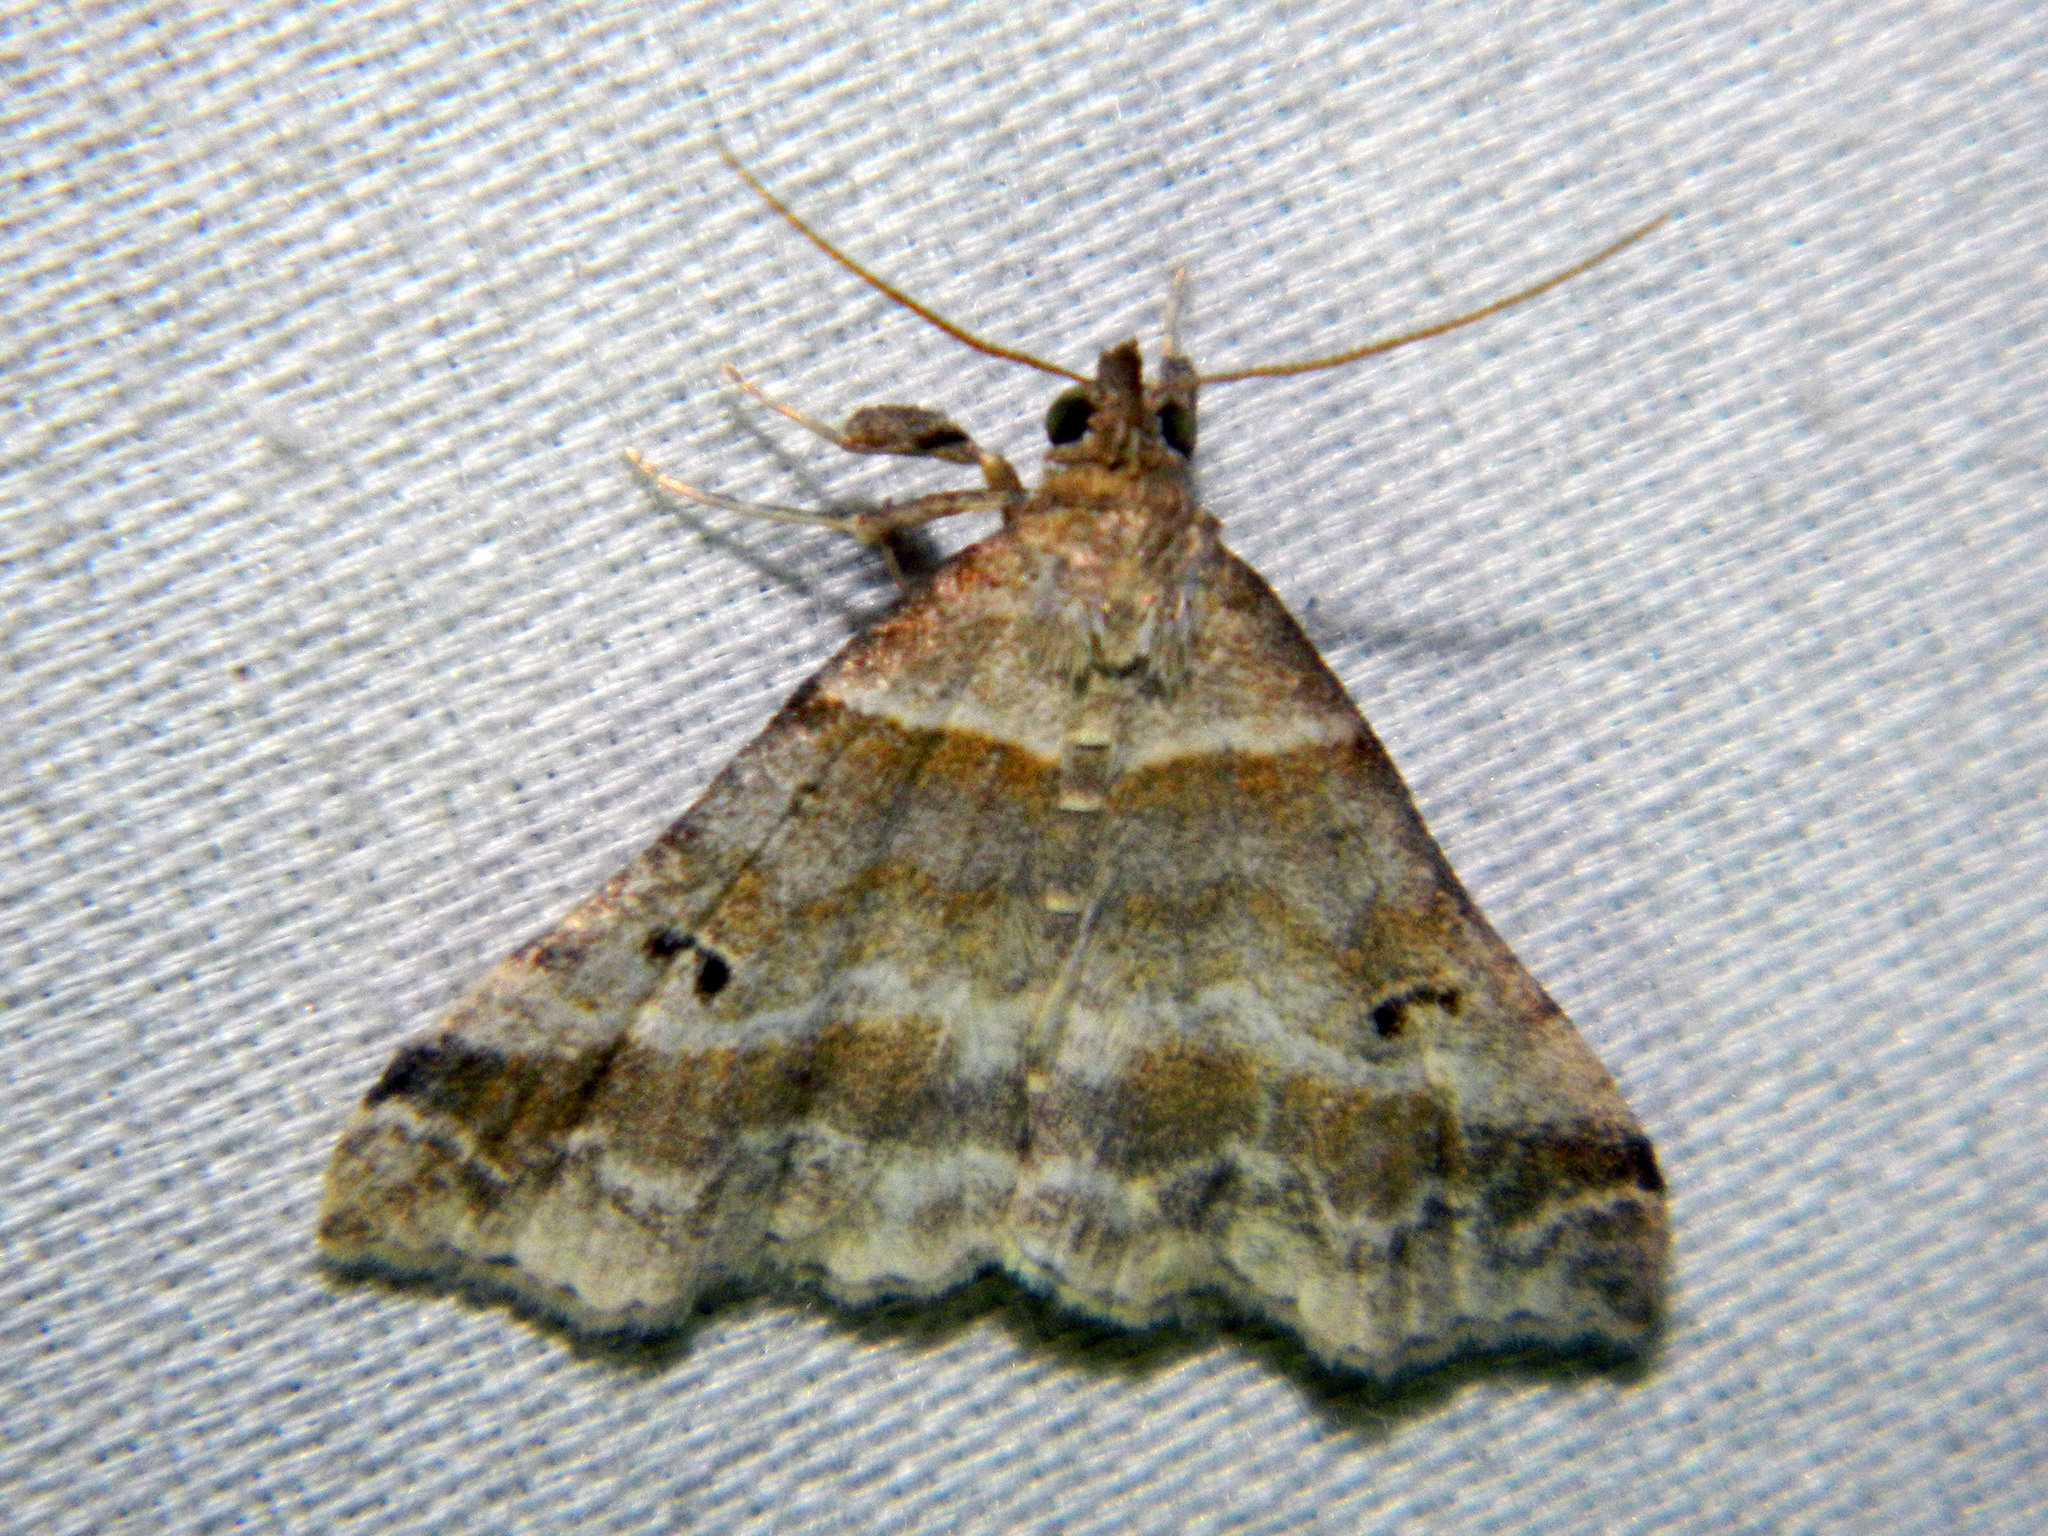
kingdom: Animalia
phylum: Arthropoda
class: Insecta
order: Lepidoptera
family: Erebidae
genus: Phaeolita
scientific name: Phaeolita pyramusalis
